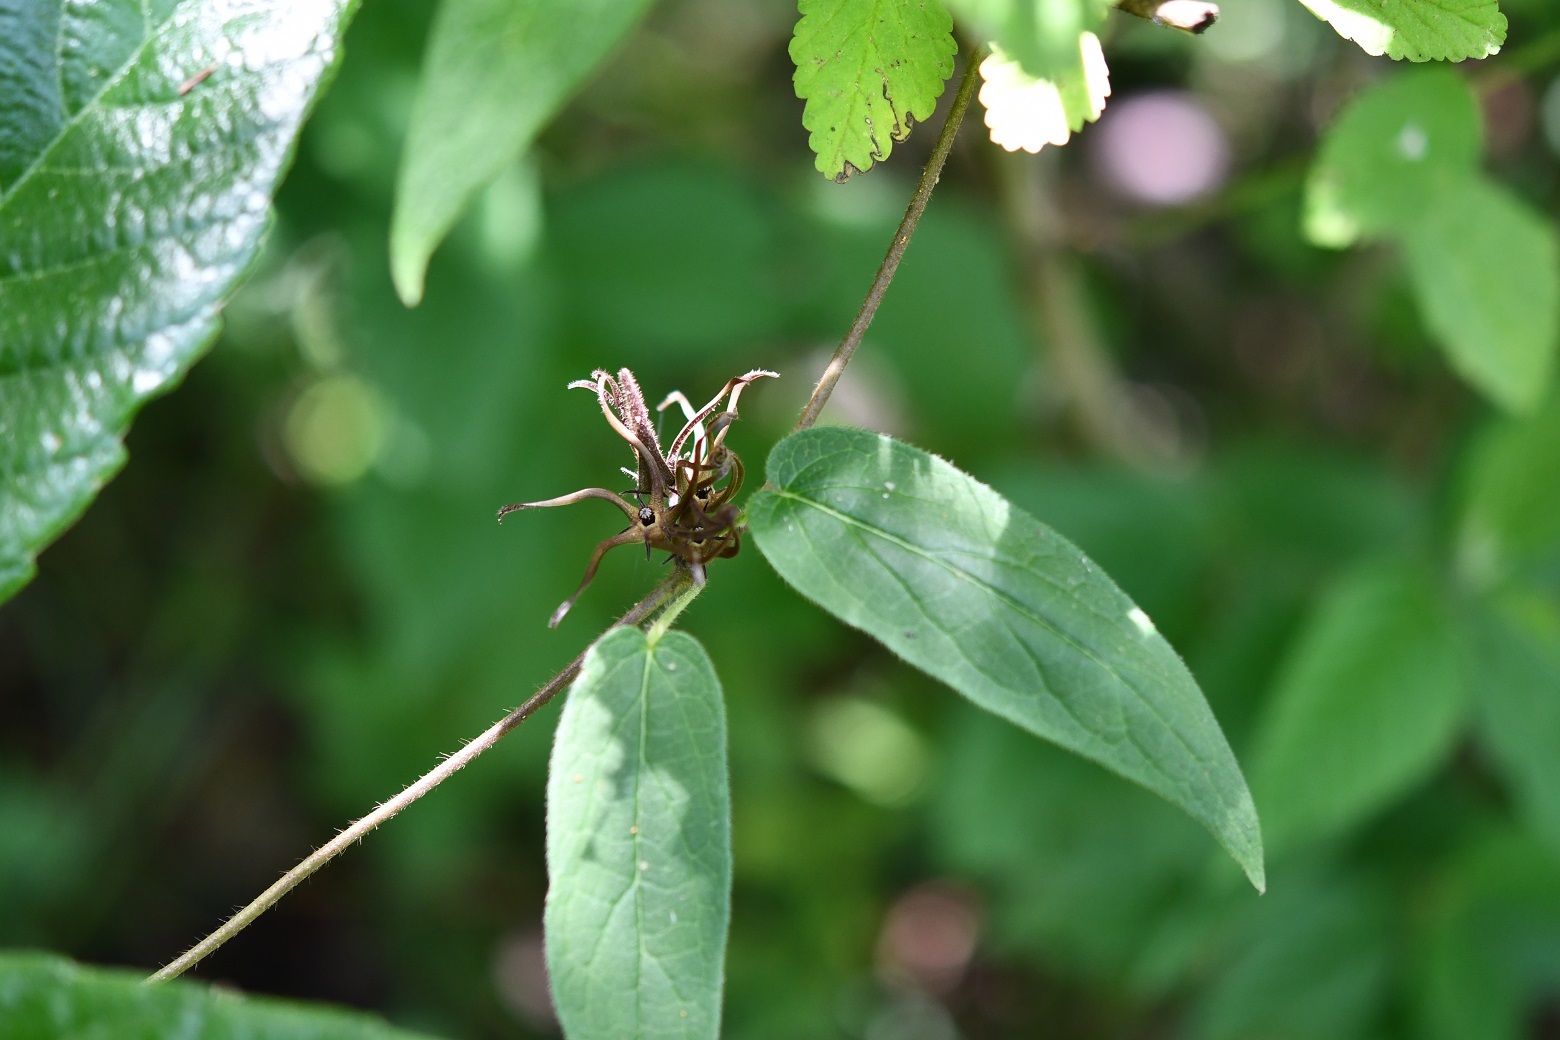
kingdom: Plantae
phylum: Tracheophyta
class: Magnoliopsida
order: Gentianales
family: Apocynaceae
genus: Matelea
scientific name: Matelea medusae
